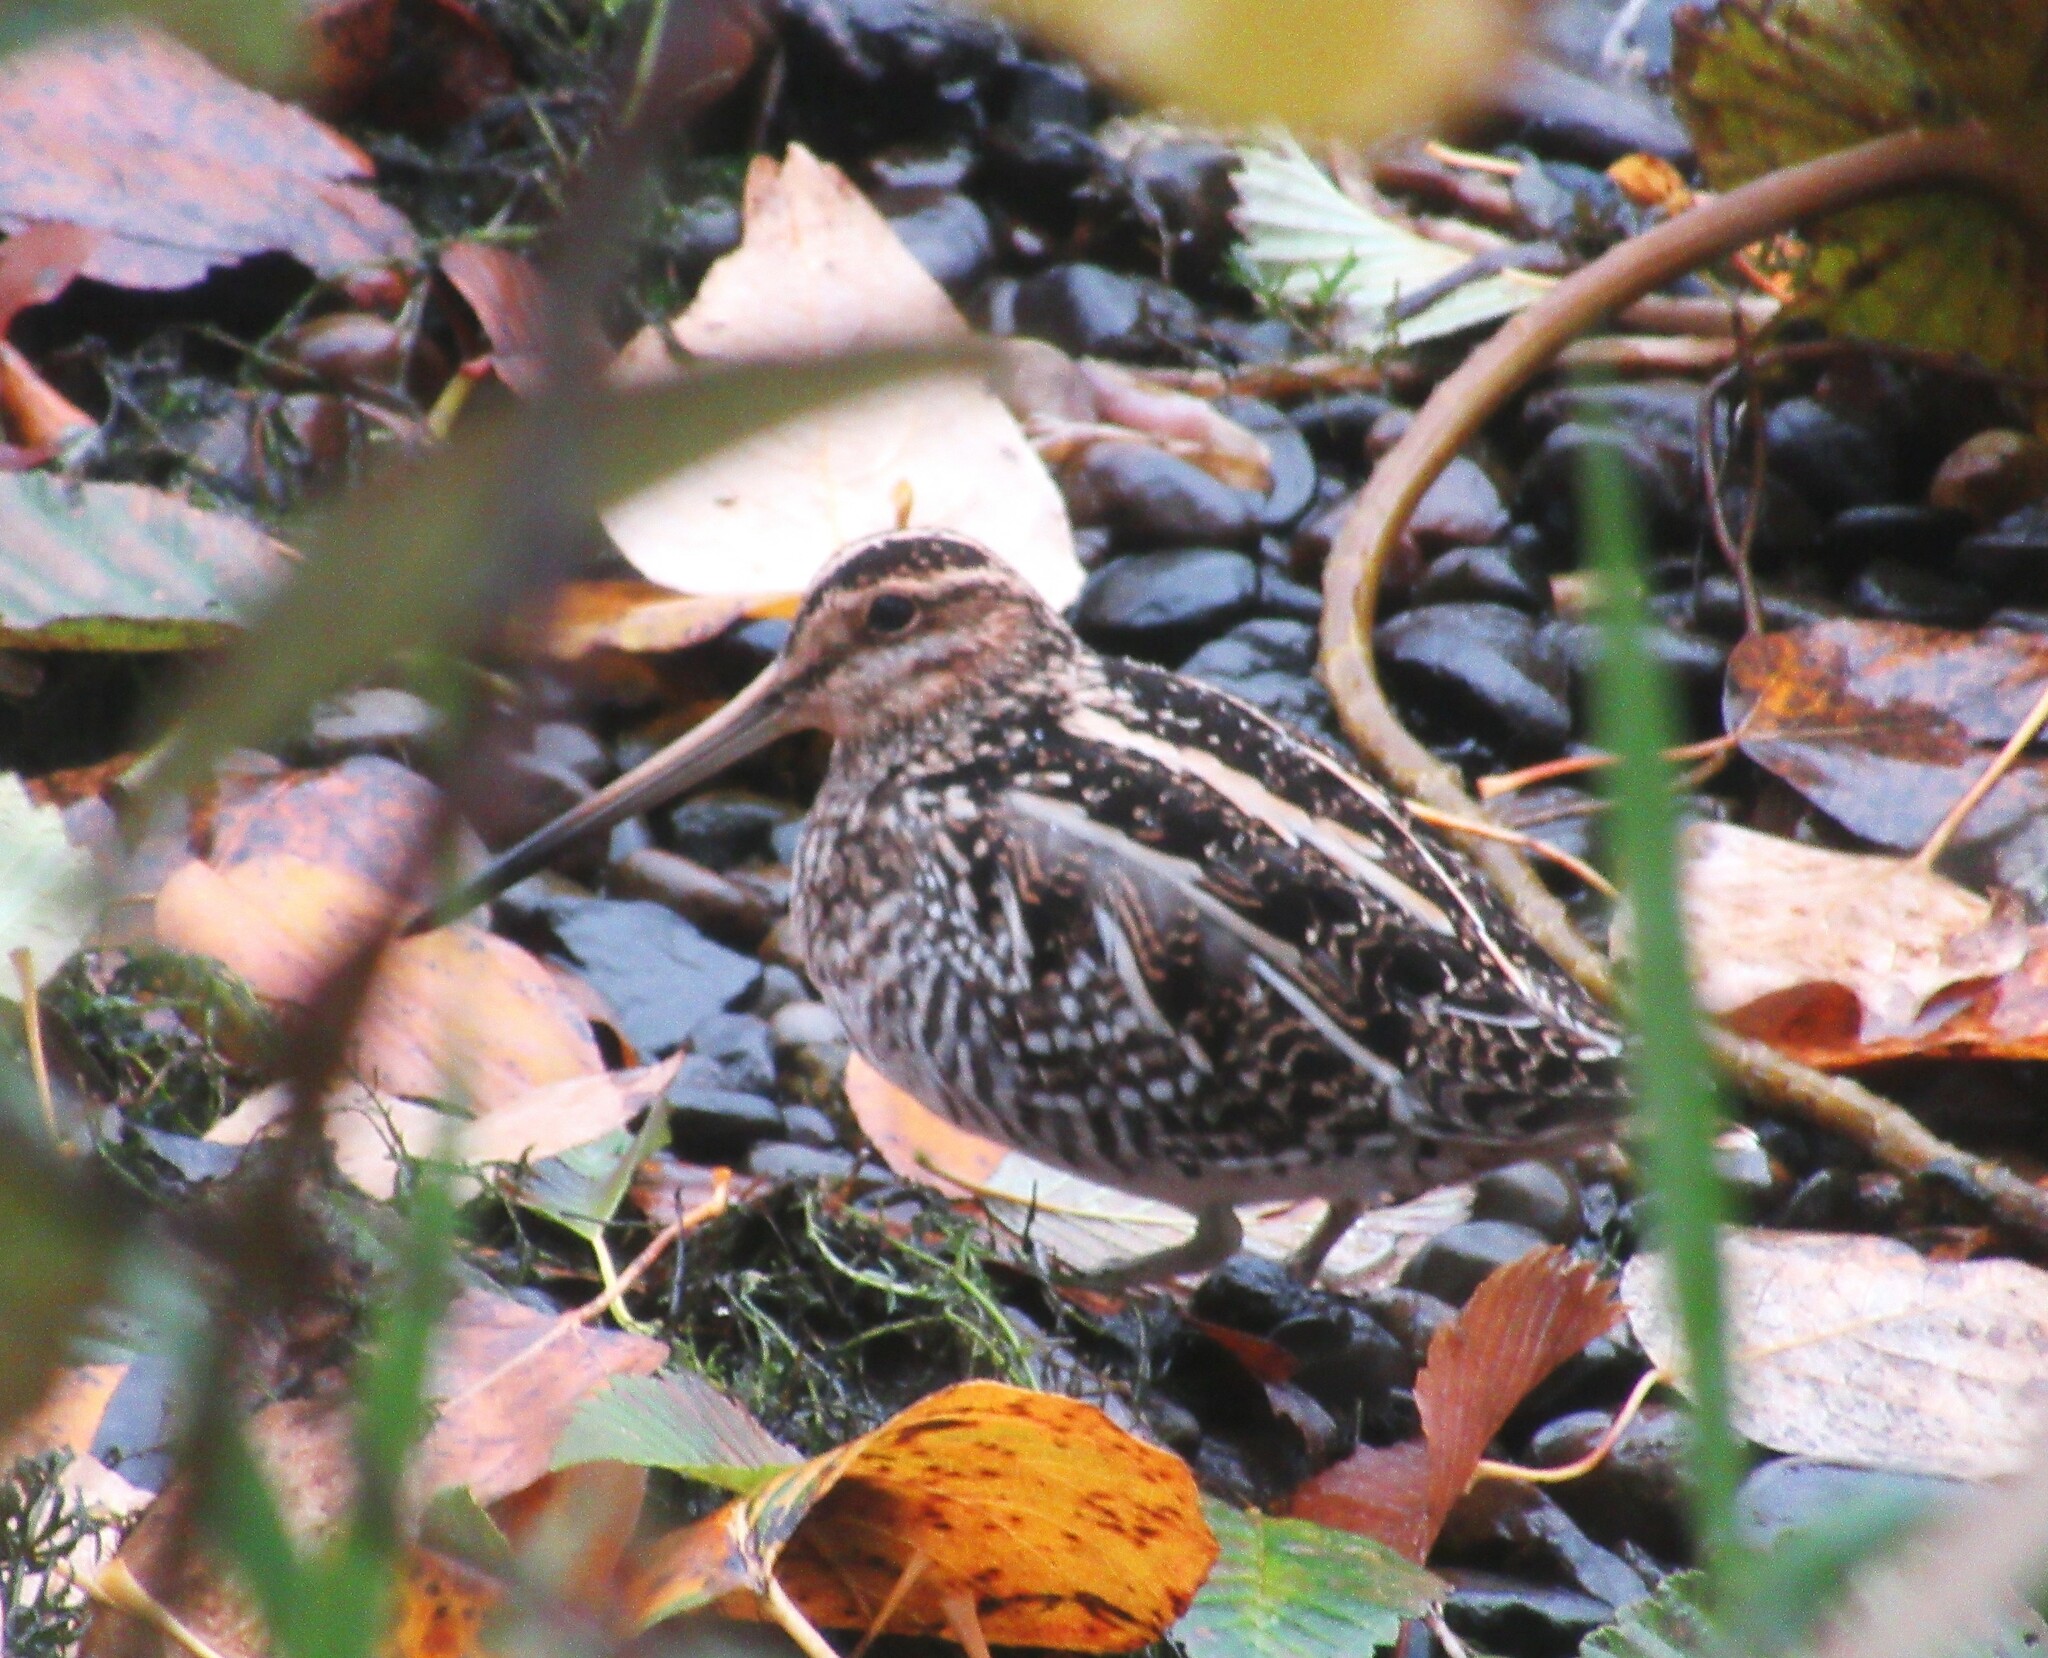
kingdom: Animalia
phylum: Chordata
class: Aves
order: Charadriiformes
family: Scolopacidae
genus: Gallinago
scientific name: Gallinago delicata
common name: Wilson's snipe
